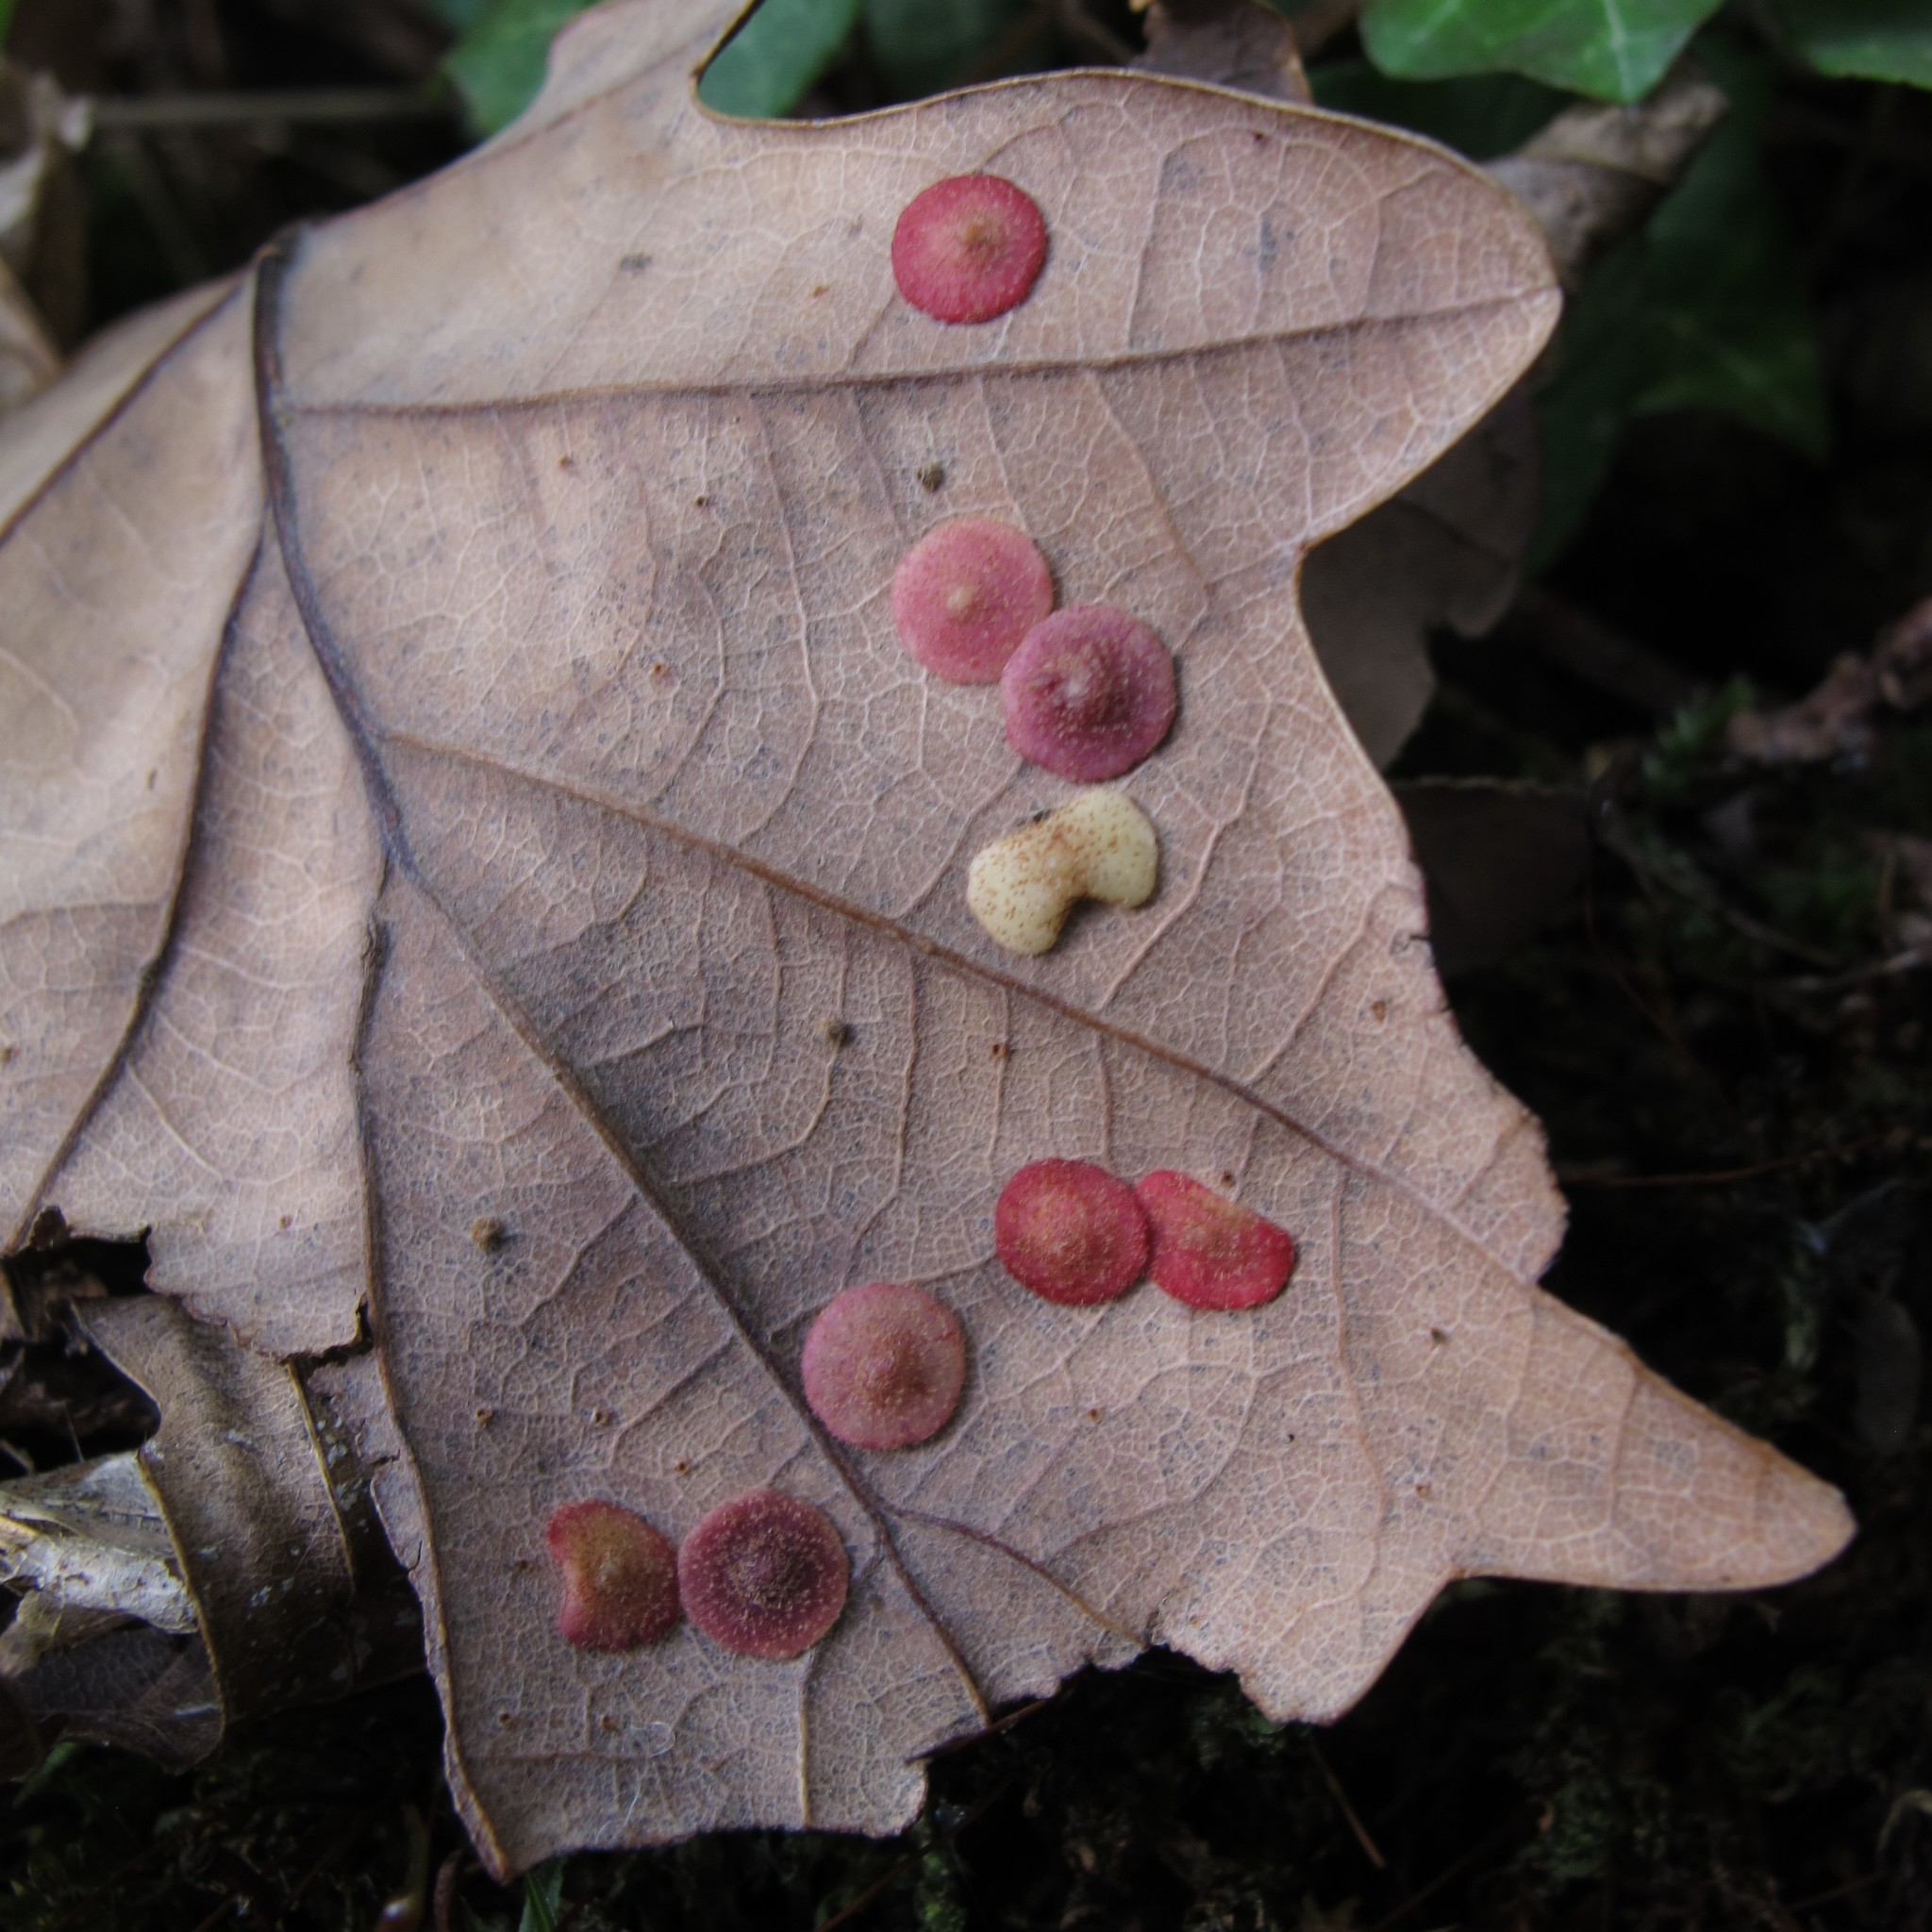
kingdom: Animalia
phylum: Arthropoda
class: Insecta
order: Hymenoptera
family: Cynipidae
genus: Neuroterus
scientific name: Neuroterus quercusbaccarum
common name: Common spangle gall
